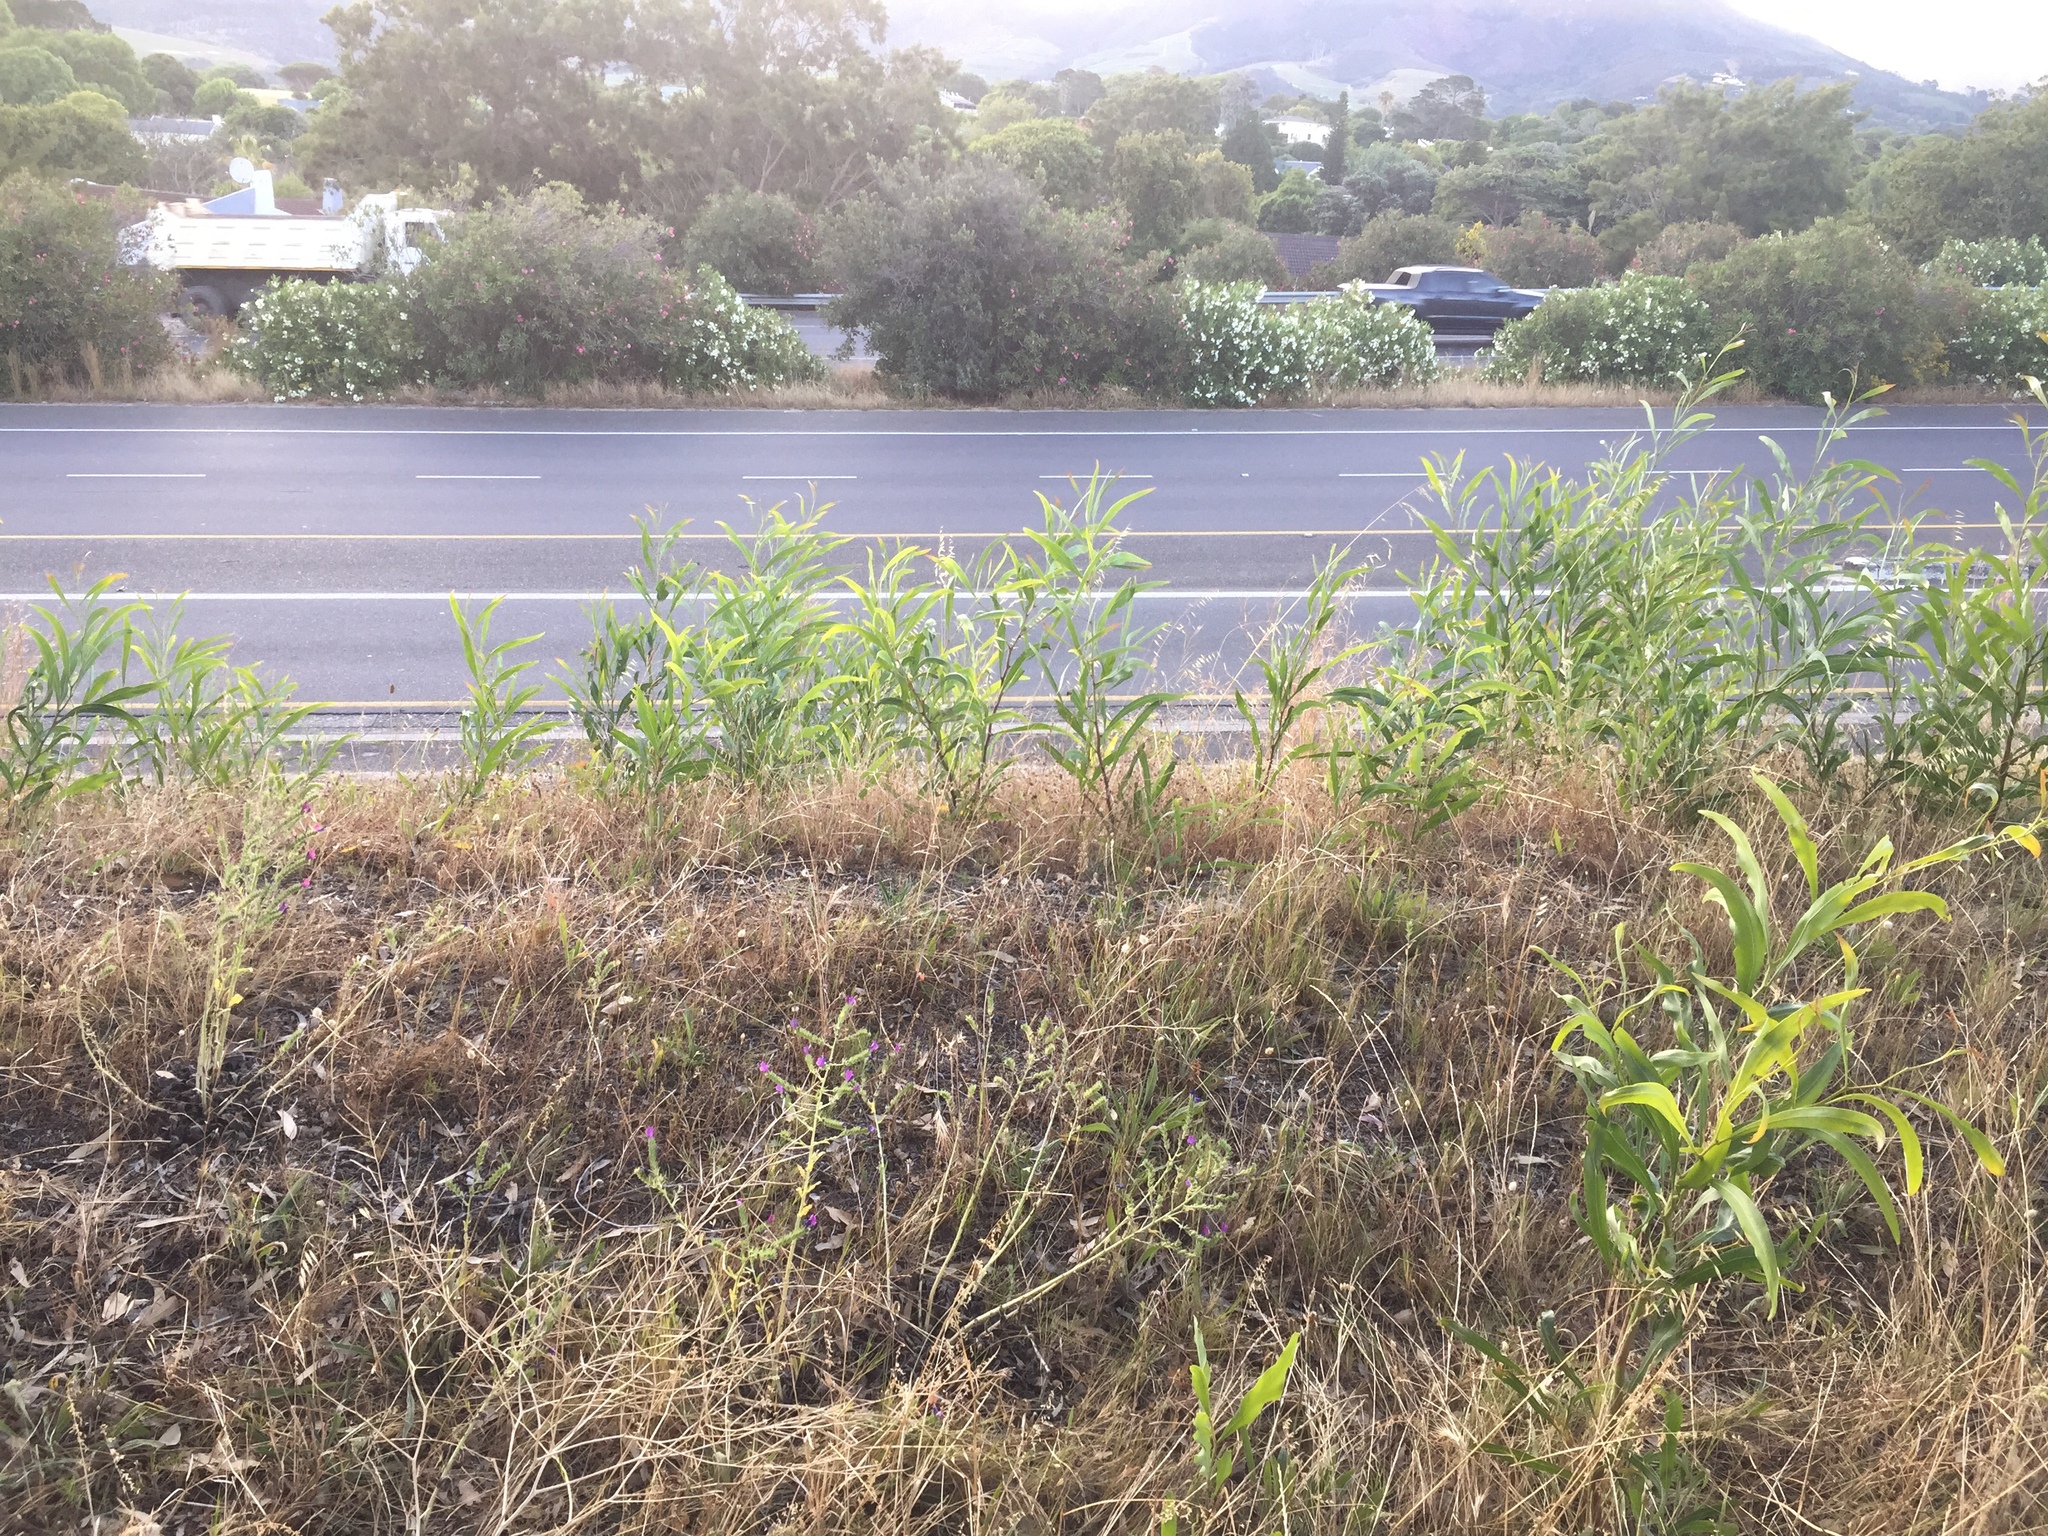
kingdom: Plantae
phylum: Tracheophyta
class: Magnoliopsida
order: Fabales
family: Fabaceae
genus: Acacia
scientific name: Acacia saligna
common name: Orange wattle
